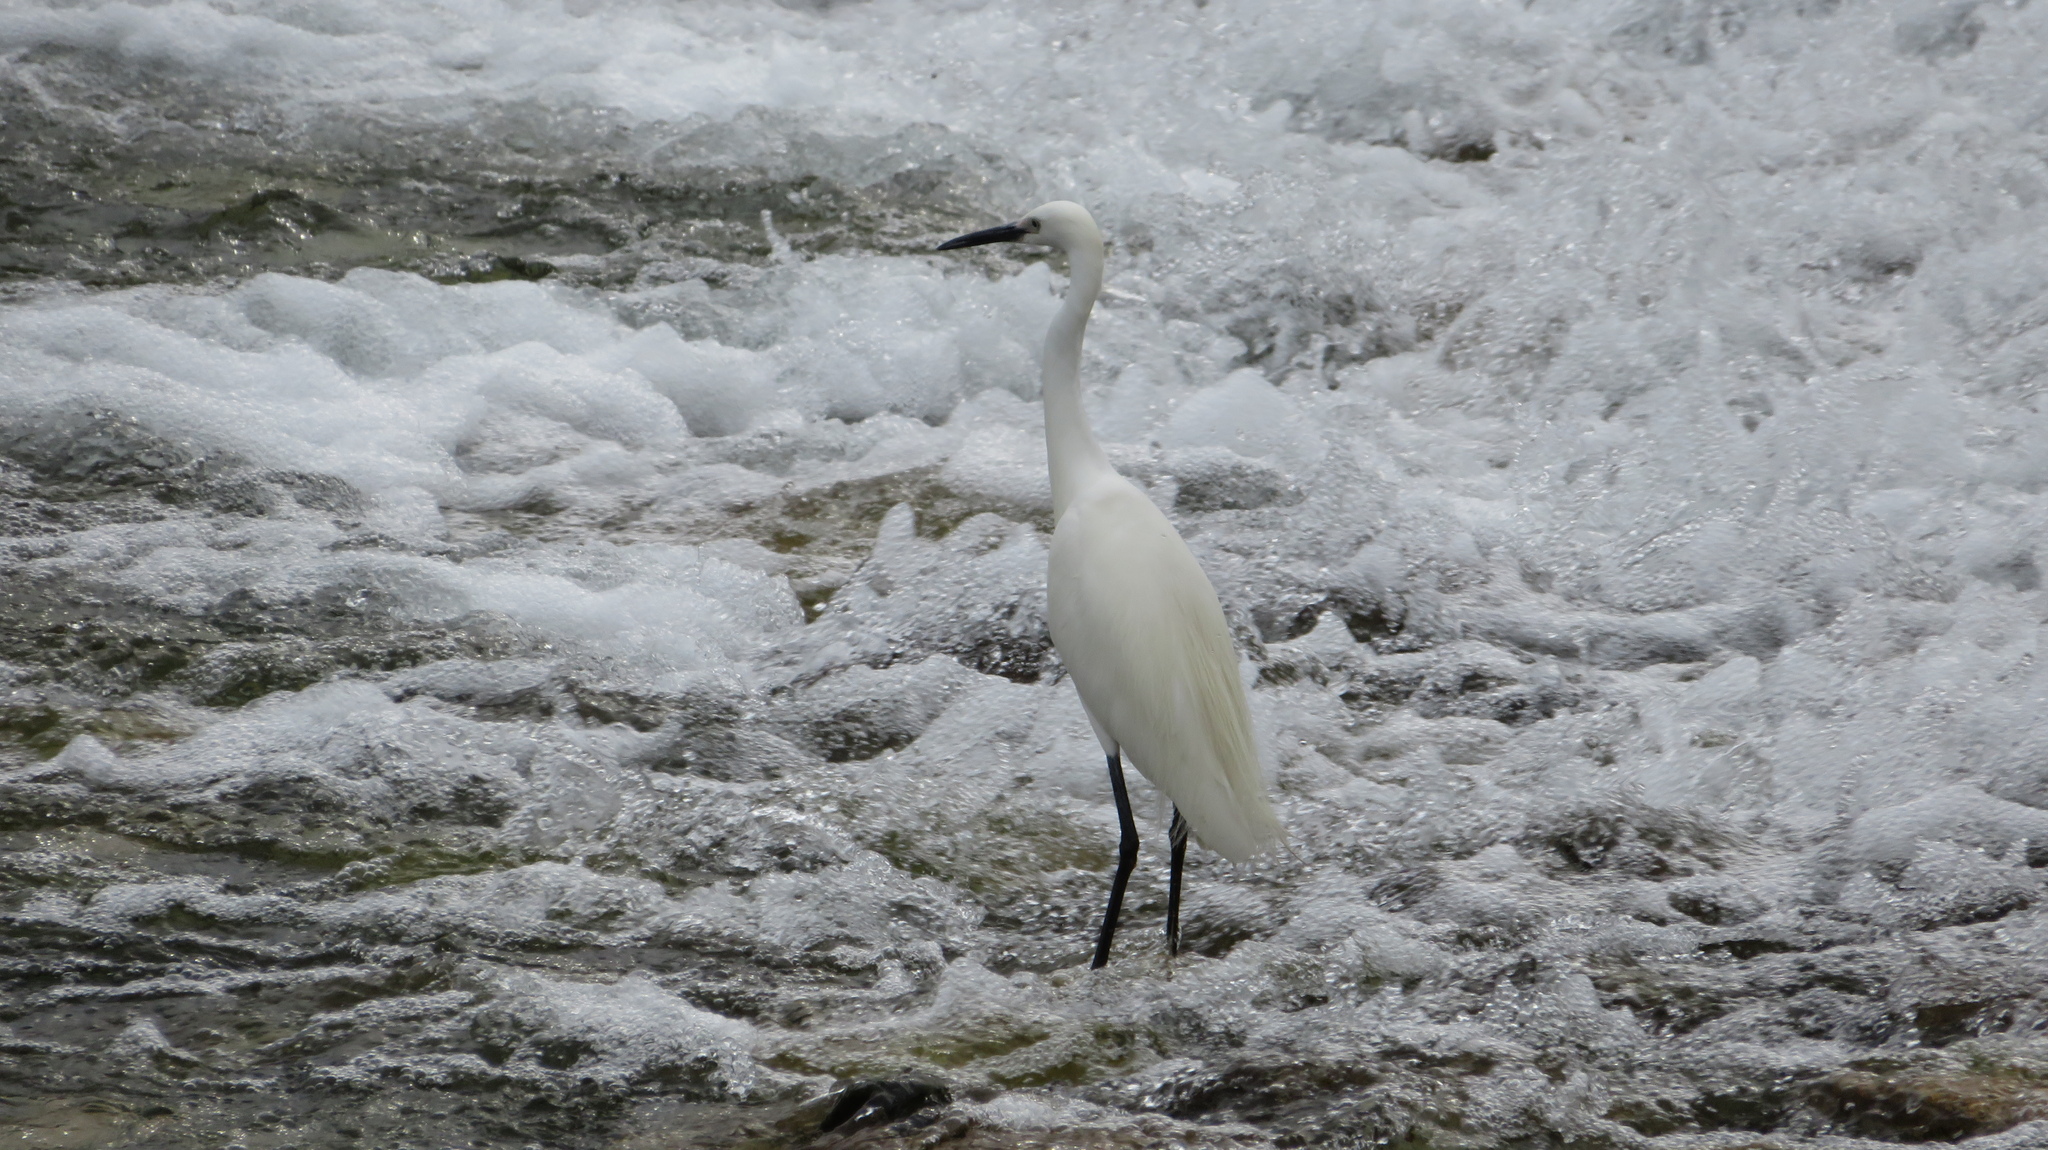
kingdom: Animalia
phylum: Chordata
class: Aves
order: Pelecaniformes
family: Ardeidae
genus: Egretta
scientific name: Egretta garzetta
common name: Little egret
